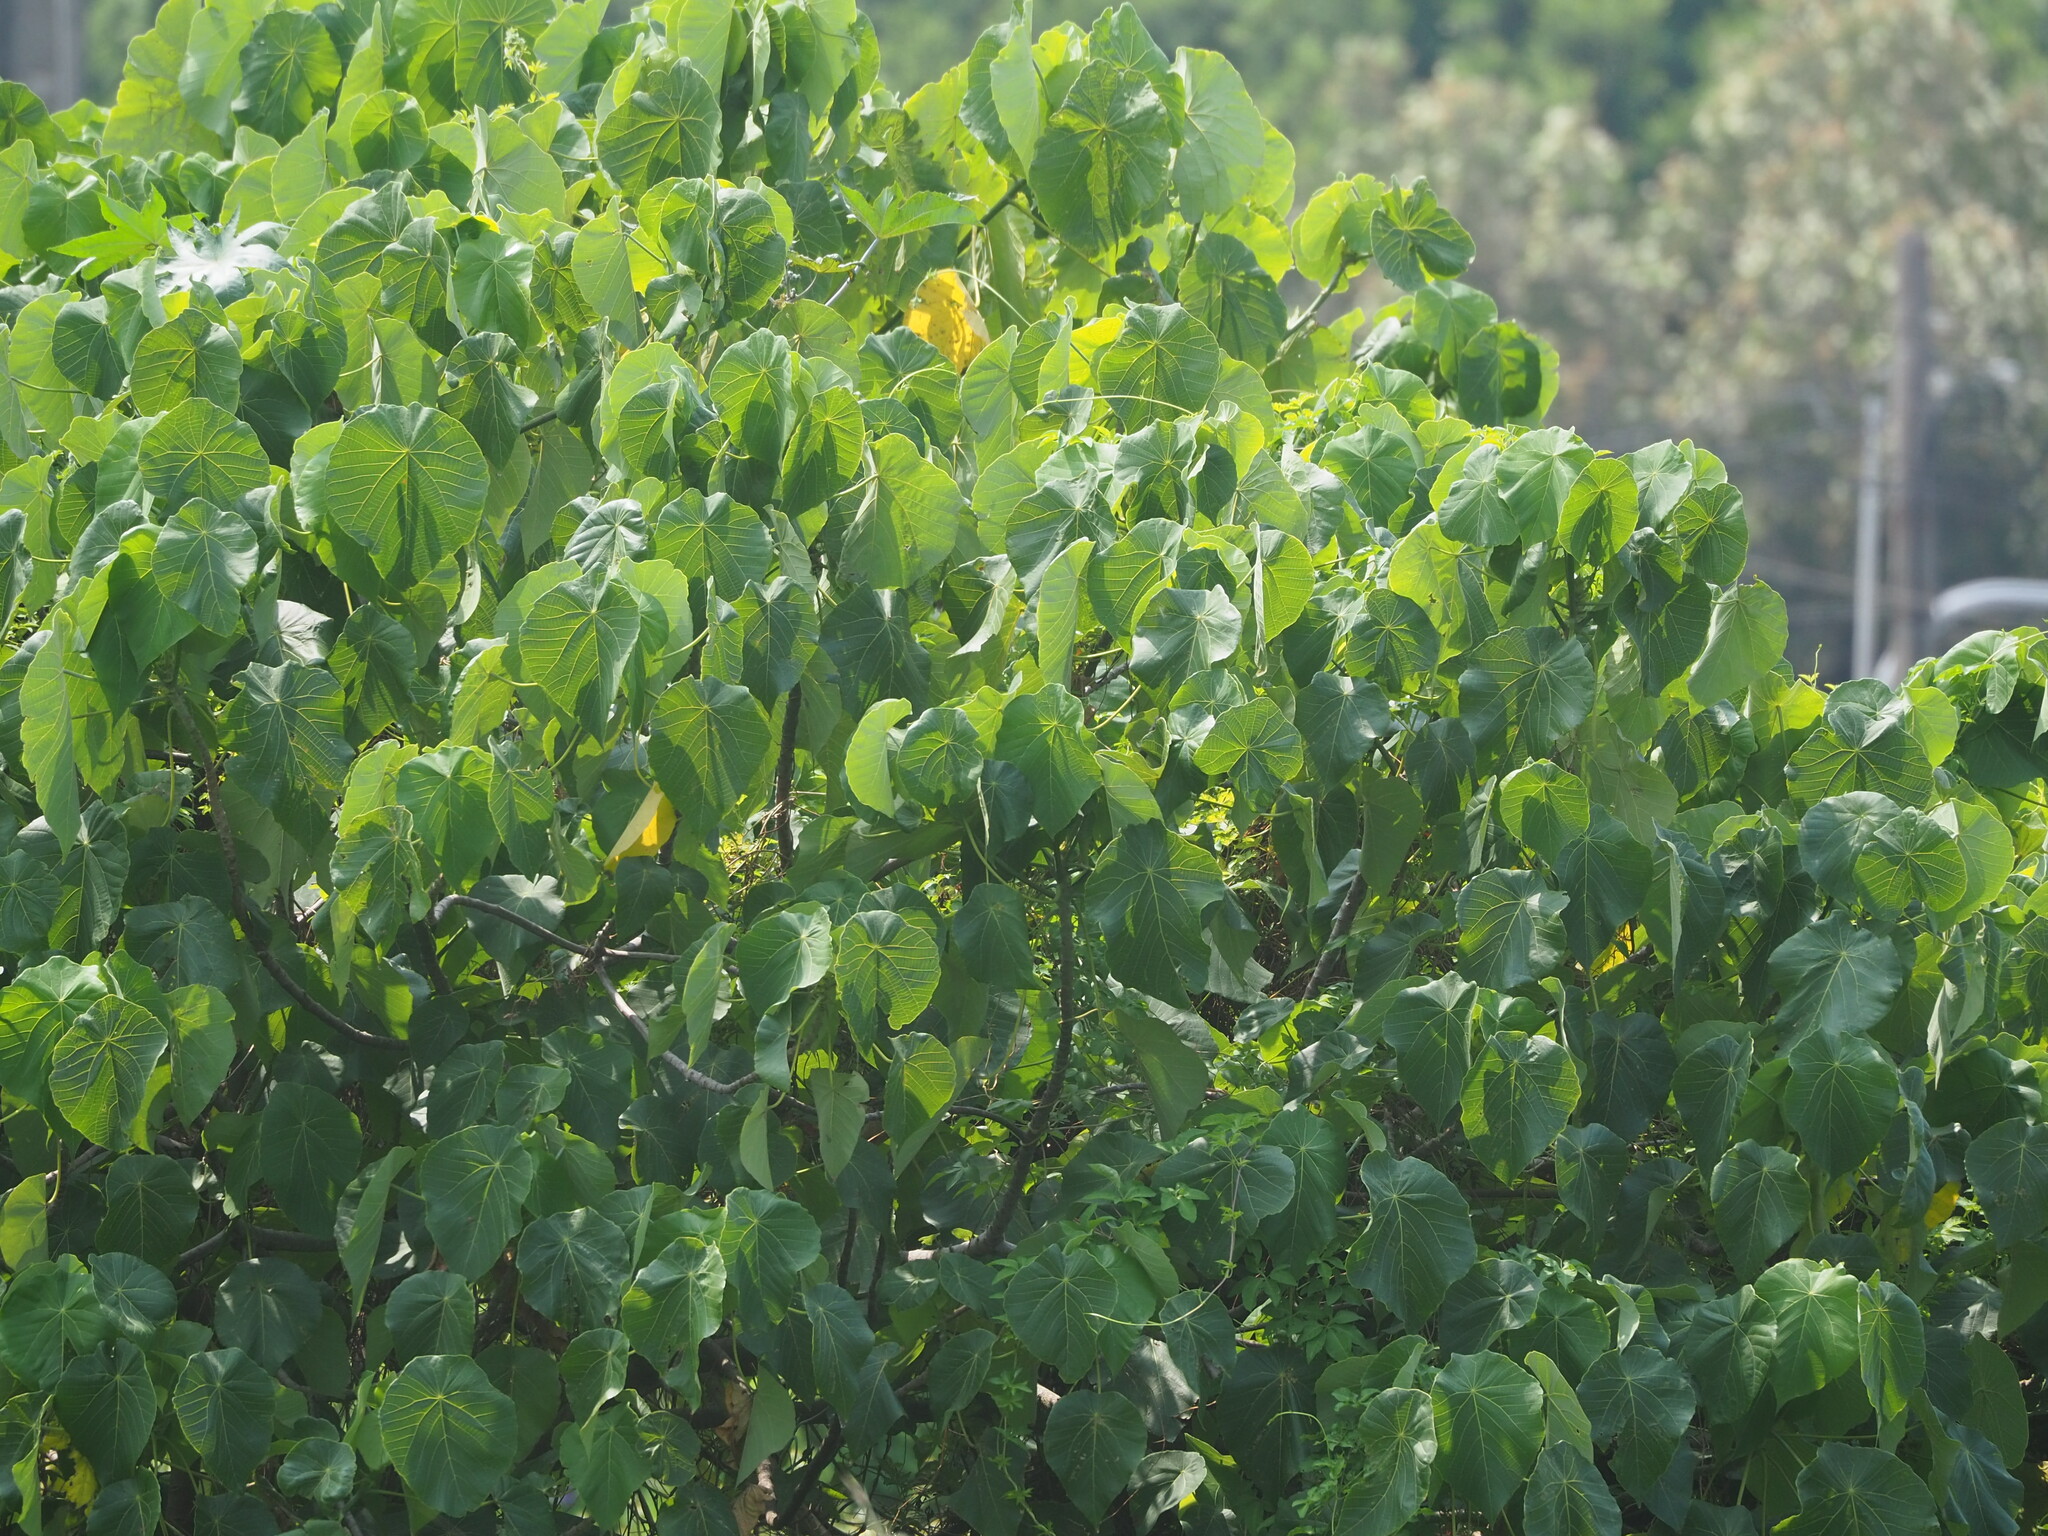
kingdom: Plantae
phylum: Tracheophyta
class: Magnoliopsida
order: Malpighiales
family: Euphorbiaceae
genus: Macaranga
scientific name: Macaranga tanarius
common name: Parasol leaf tree
